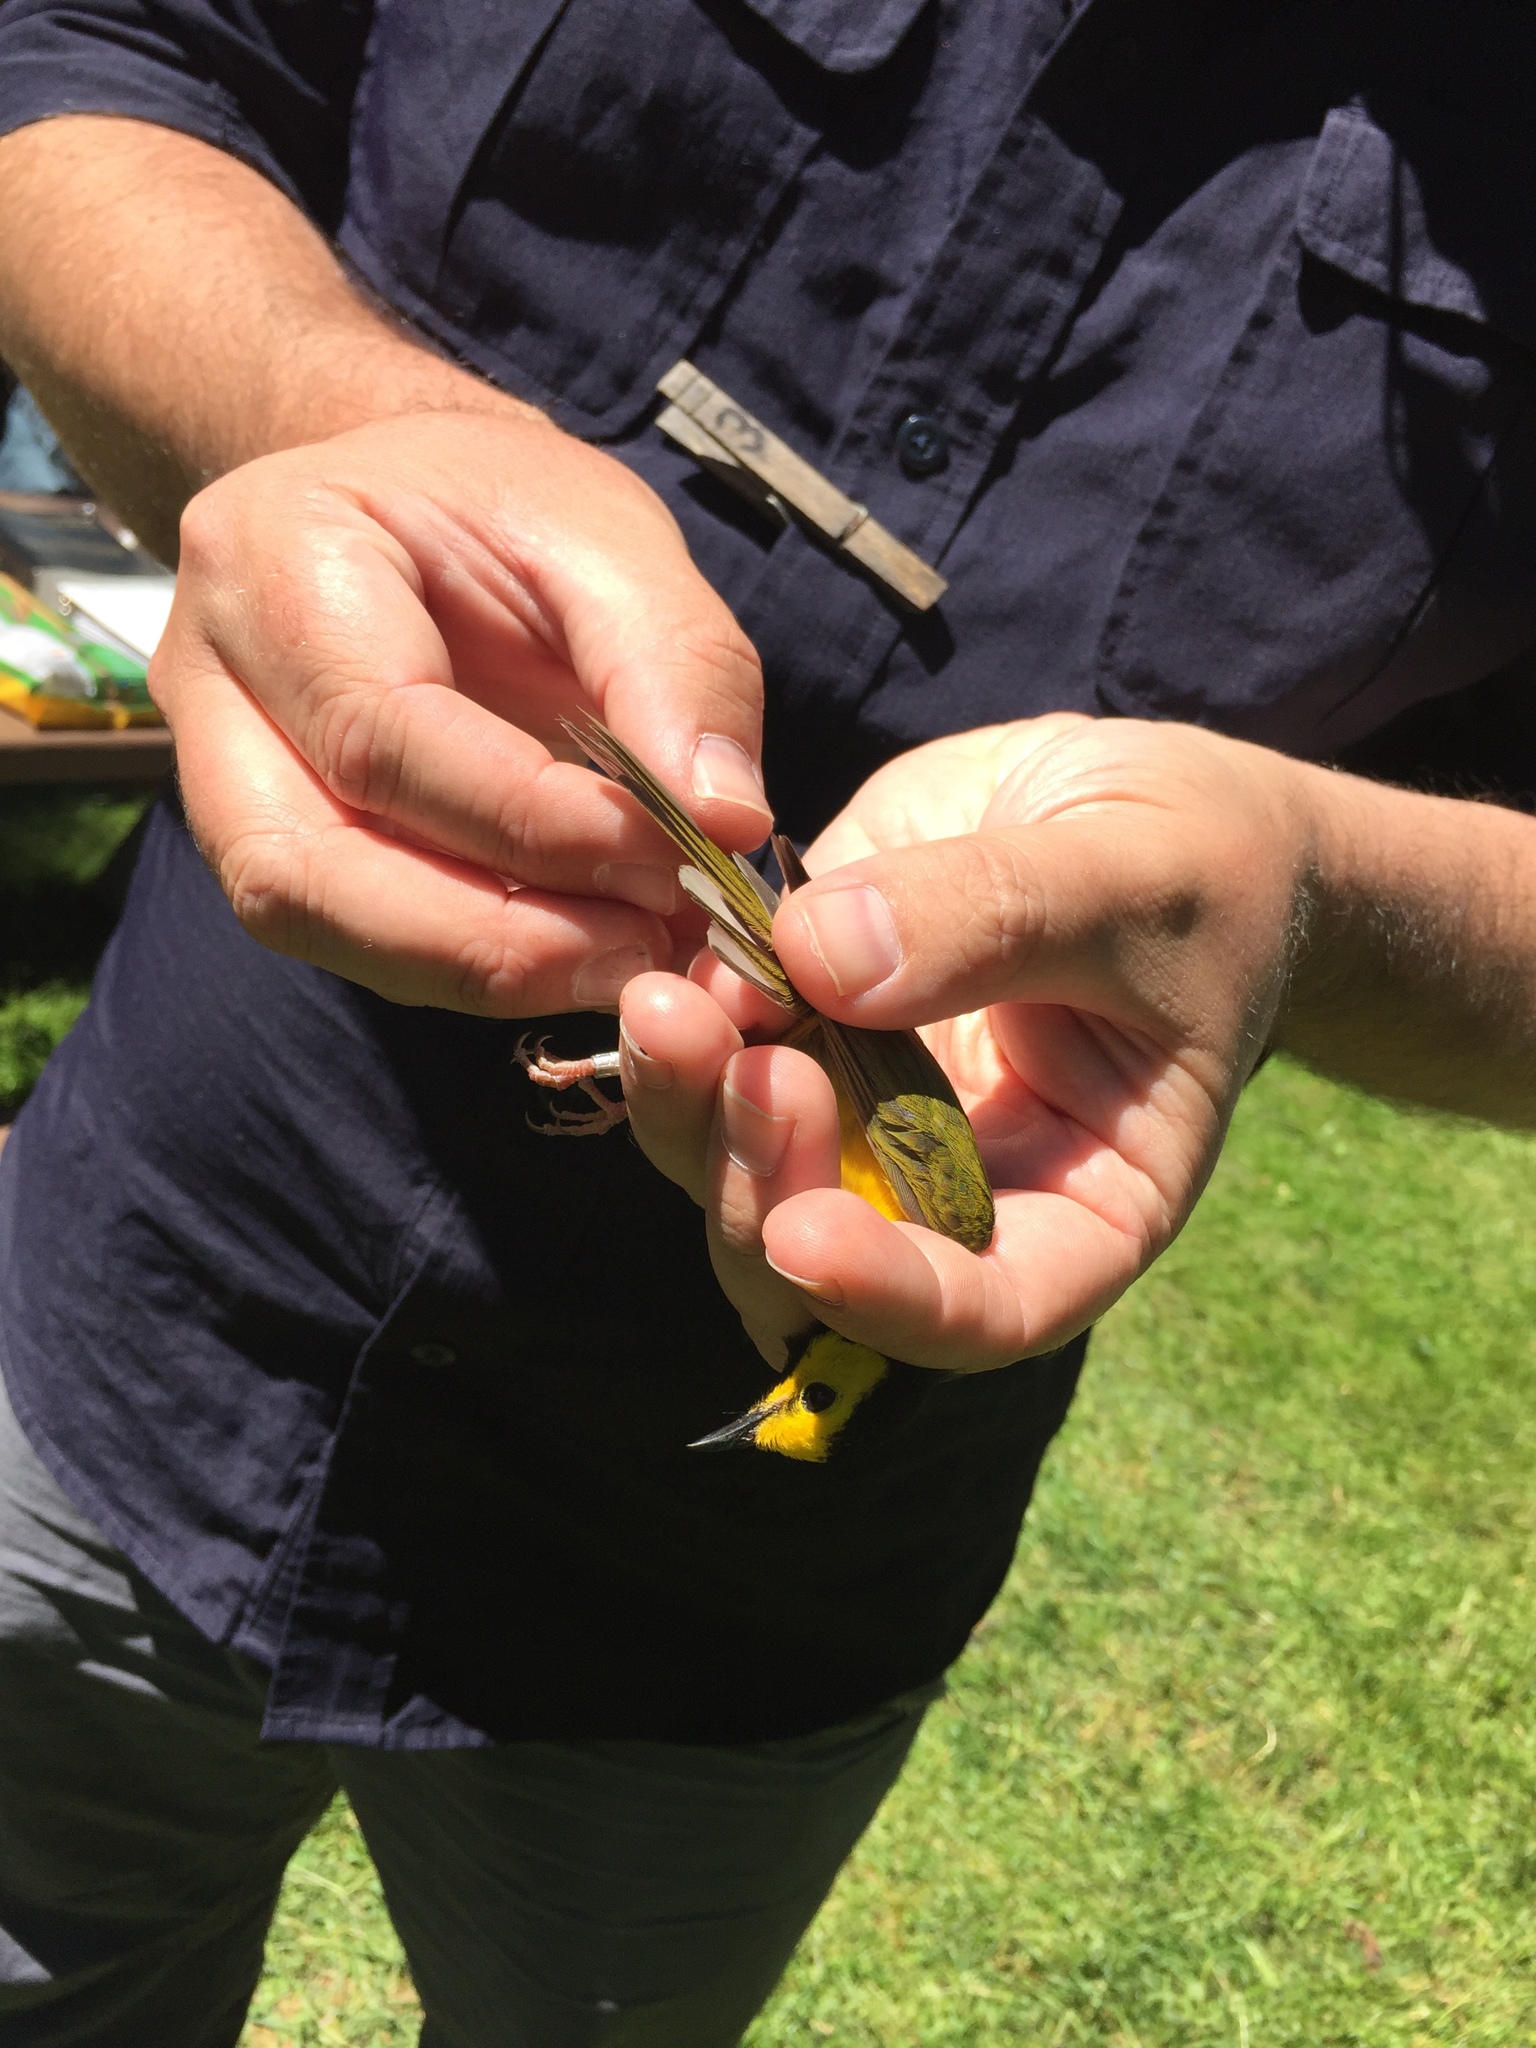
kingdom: Animalia
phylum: Chordata
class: Aves
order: Passeriformes
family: Parulidae
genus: Setophaga
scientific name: Setophaga citrina
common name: Hooded warbler
